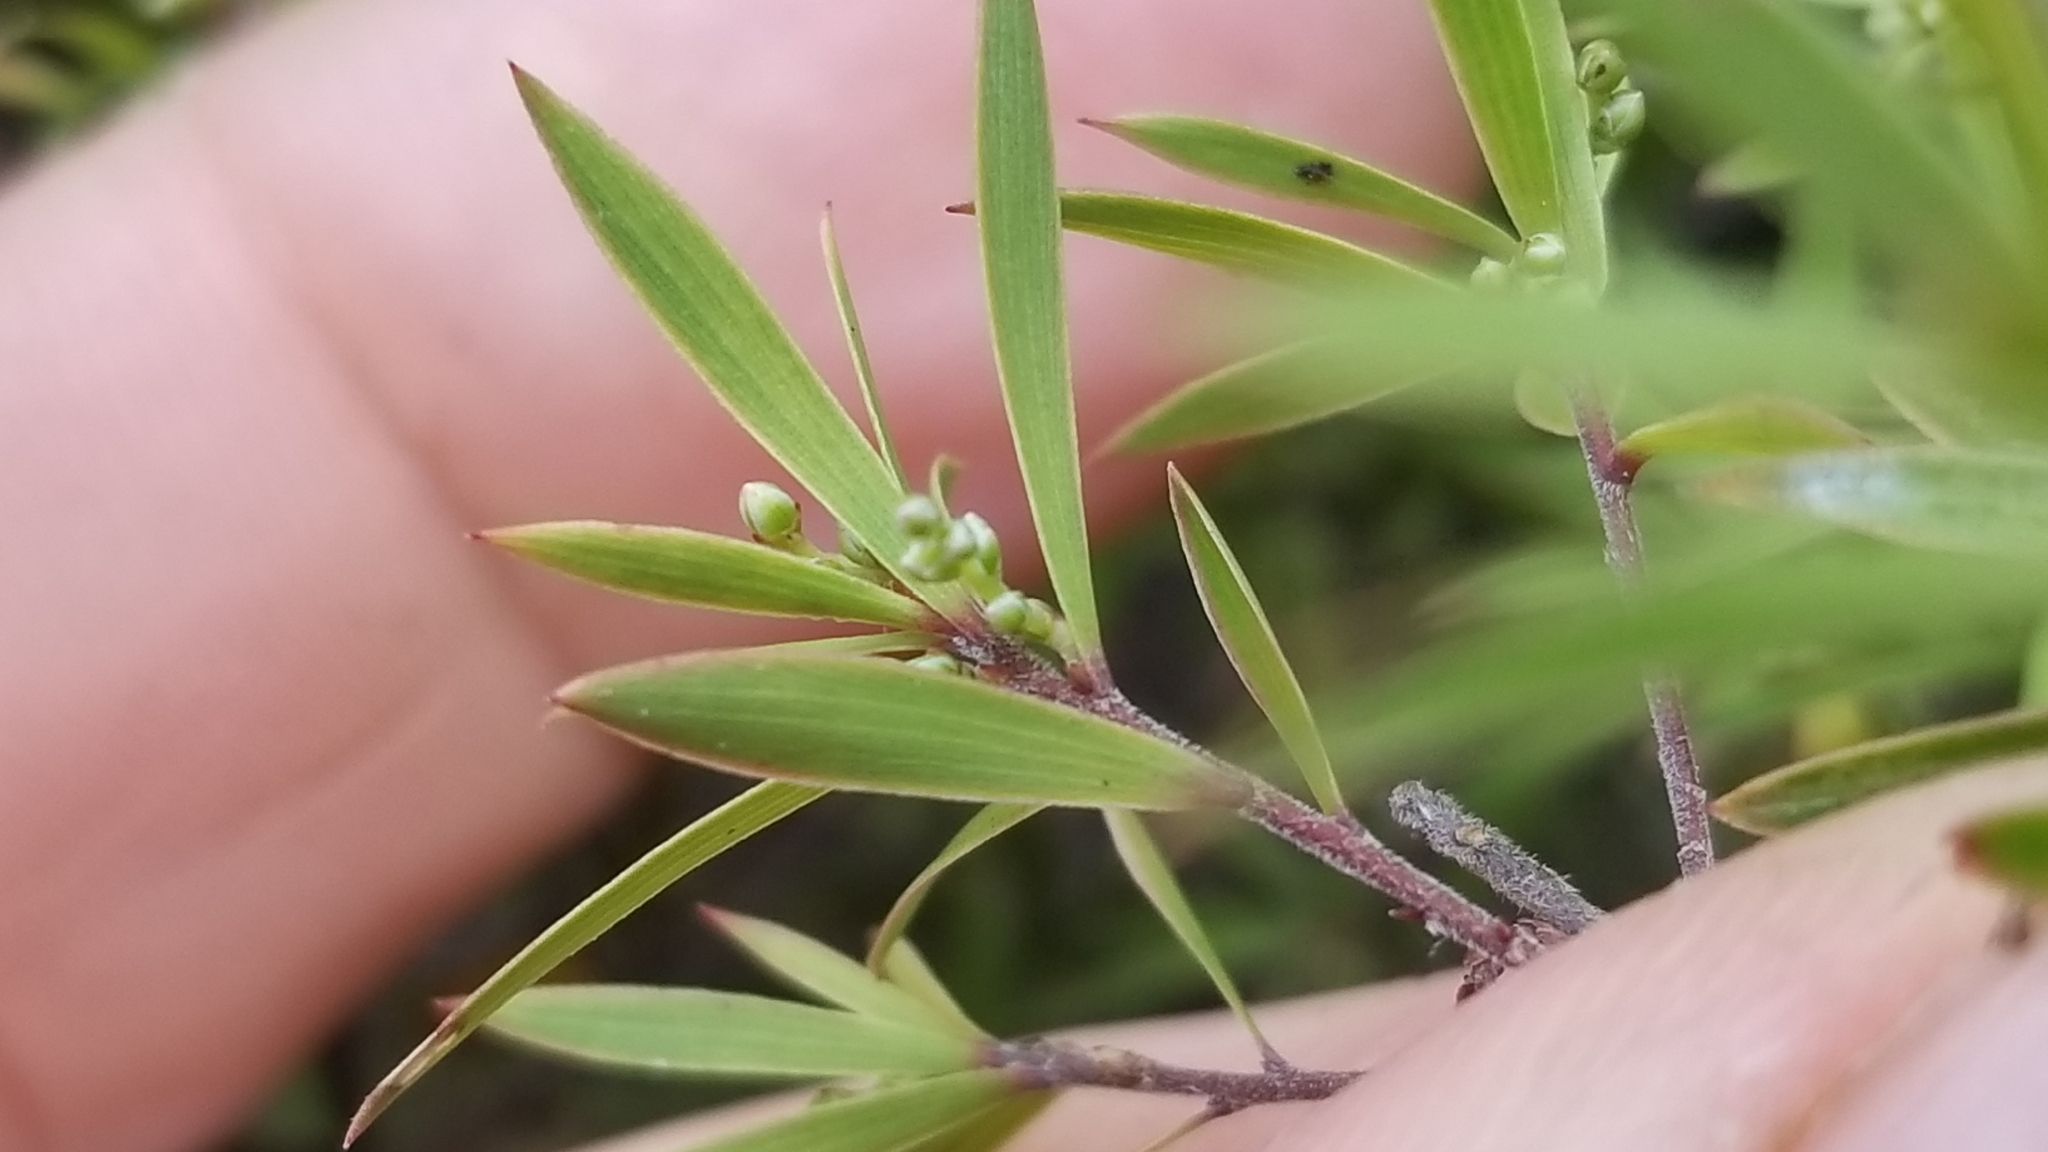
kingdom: Plantae
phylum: Tracheophyta
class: Magnoliopsida
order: Ericales
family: Ericaceae
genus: Leucopogon
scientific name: Leucopogon fasciculatus
